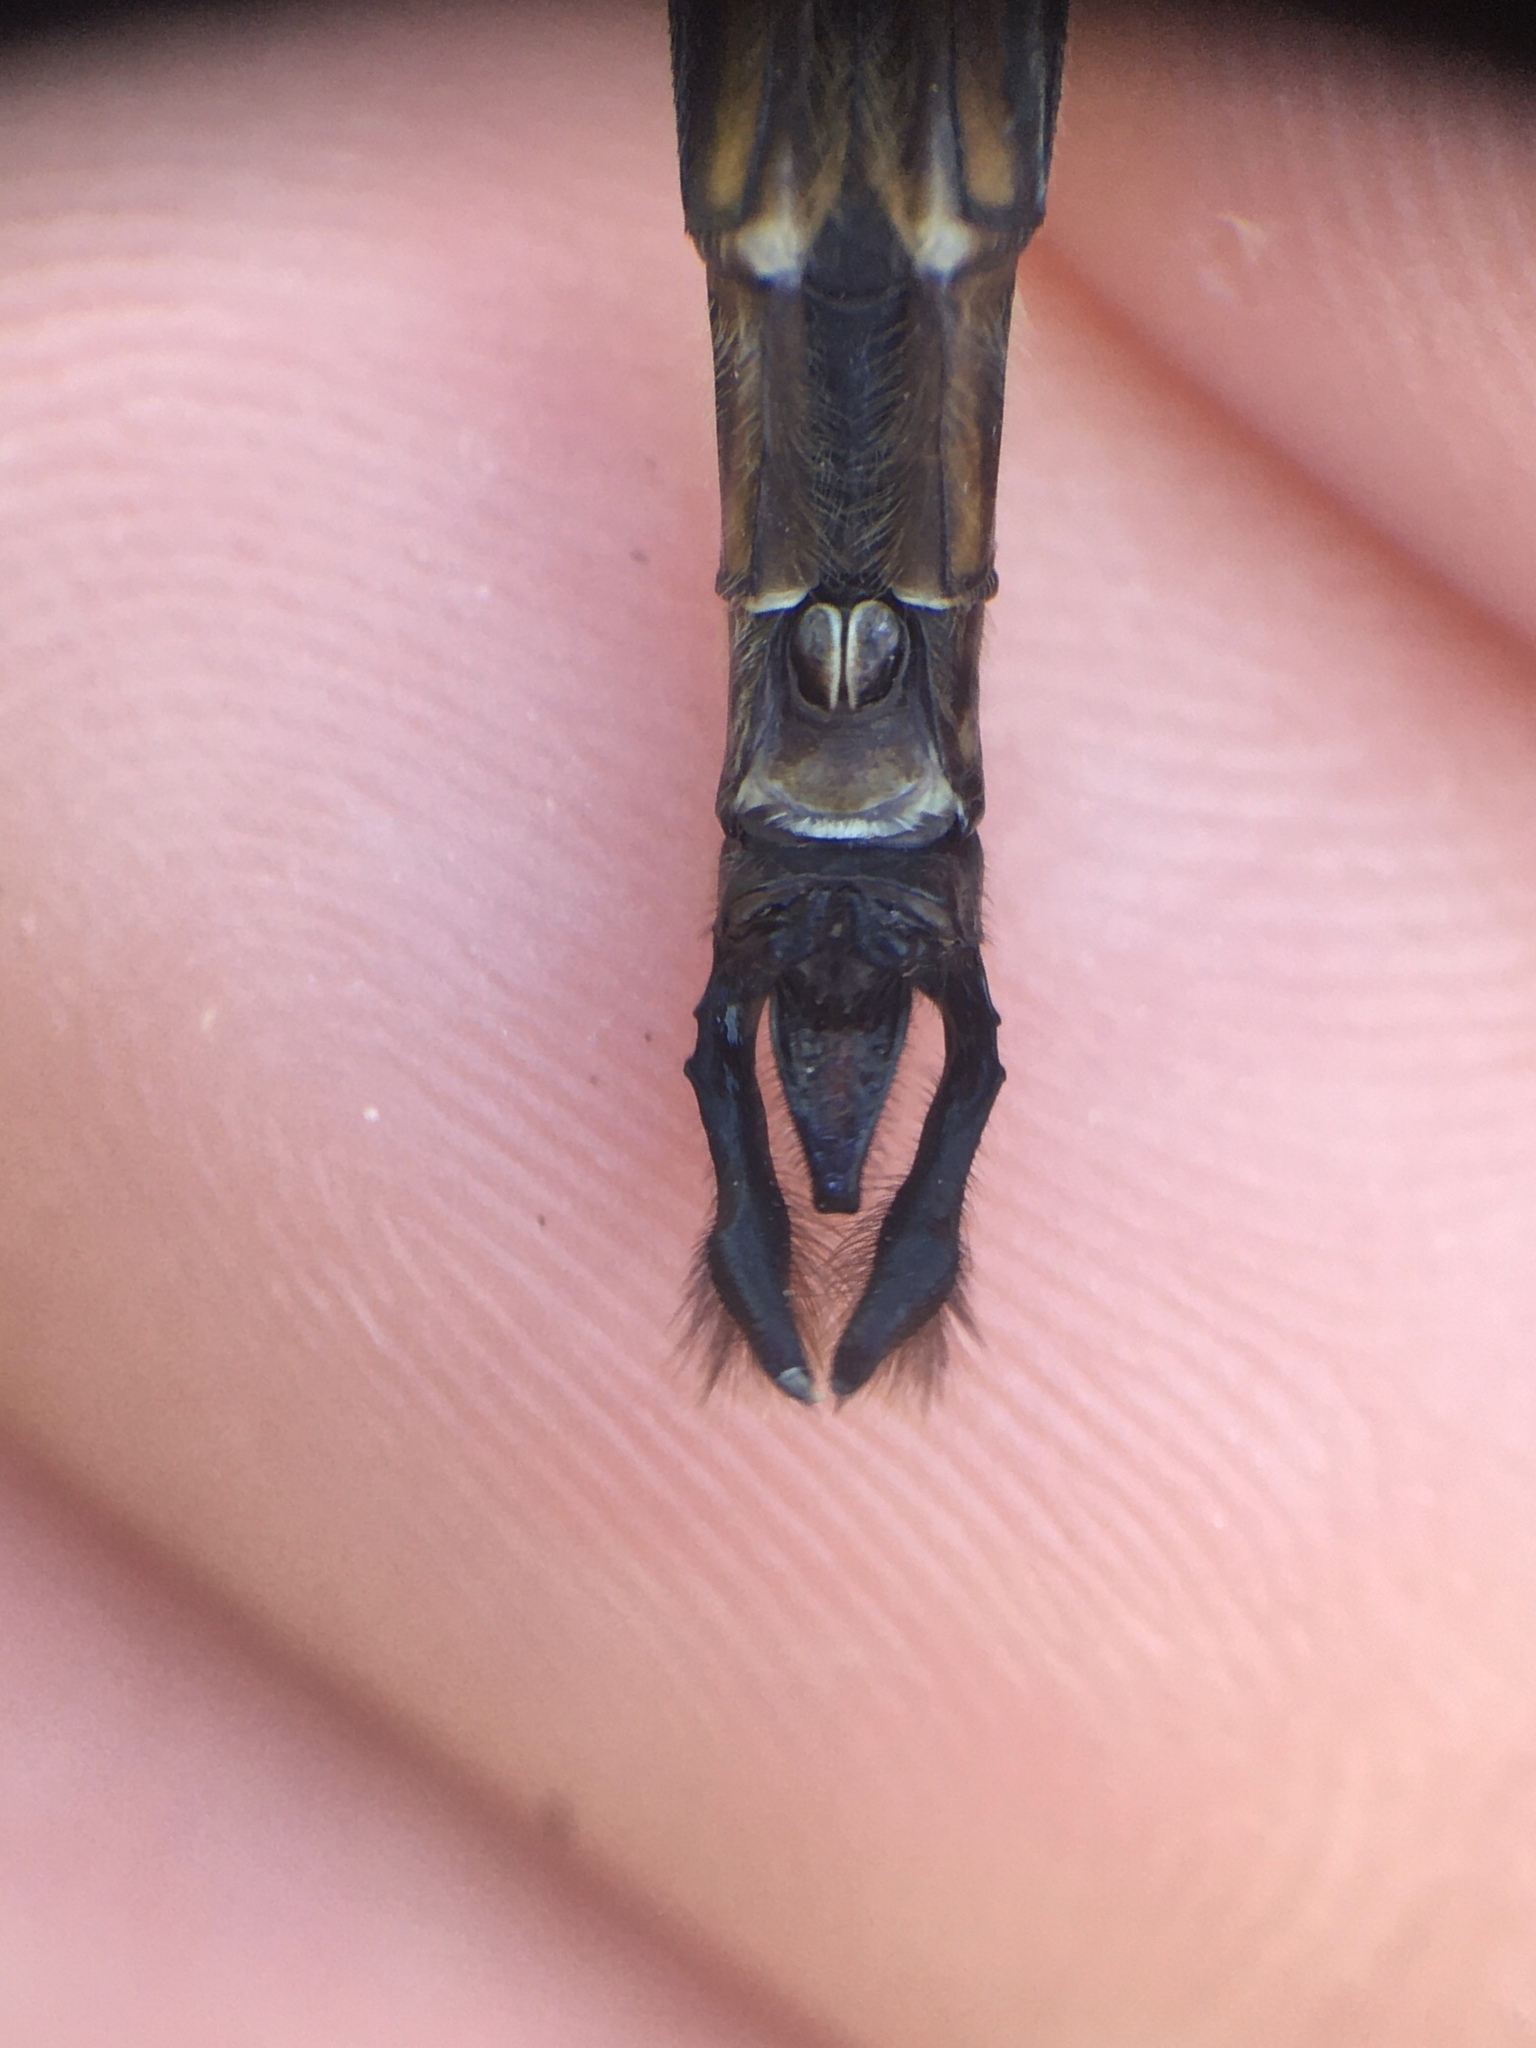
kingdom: Animalia
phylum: Arthropoda
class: Insecta
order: Odonata
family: Corduliidae
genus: Somatochlora
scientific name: Somatochlora walshii
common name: Brush-tipped emerald
